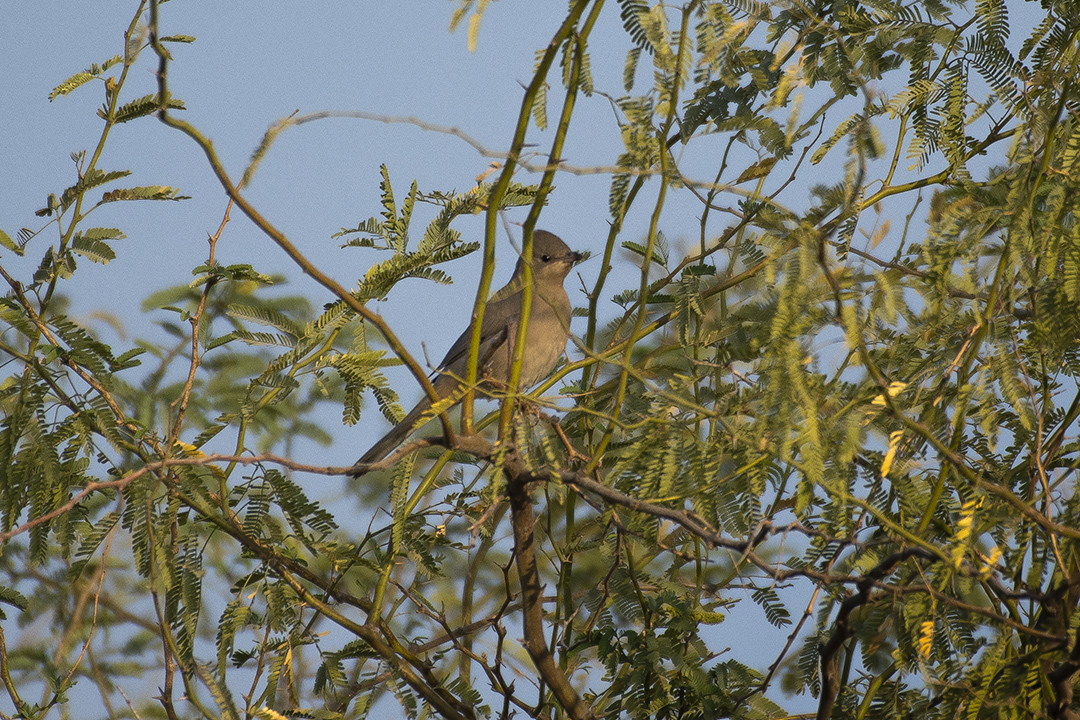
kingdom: Animalia
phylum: Chordata
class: Aves
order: Passeriformes
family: Hypocoliidae
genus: Hypocolius
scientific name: Hypocolius ampelinus
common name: Hypocolius
